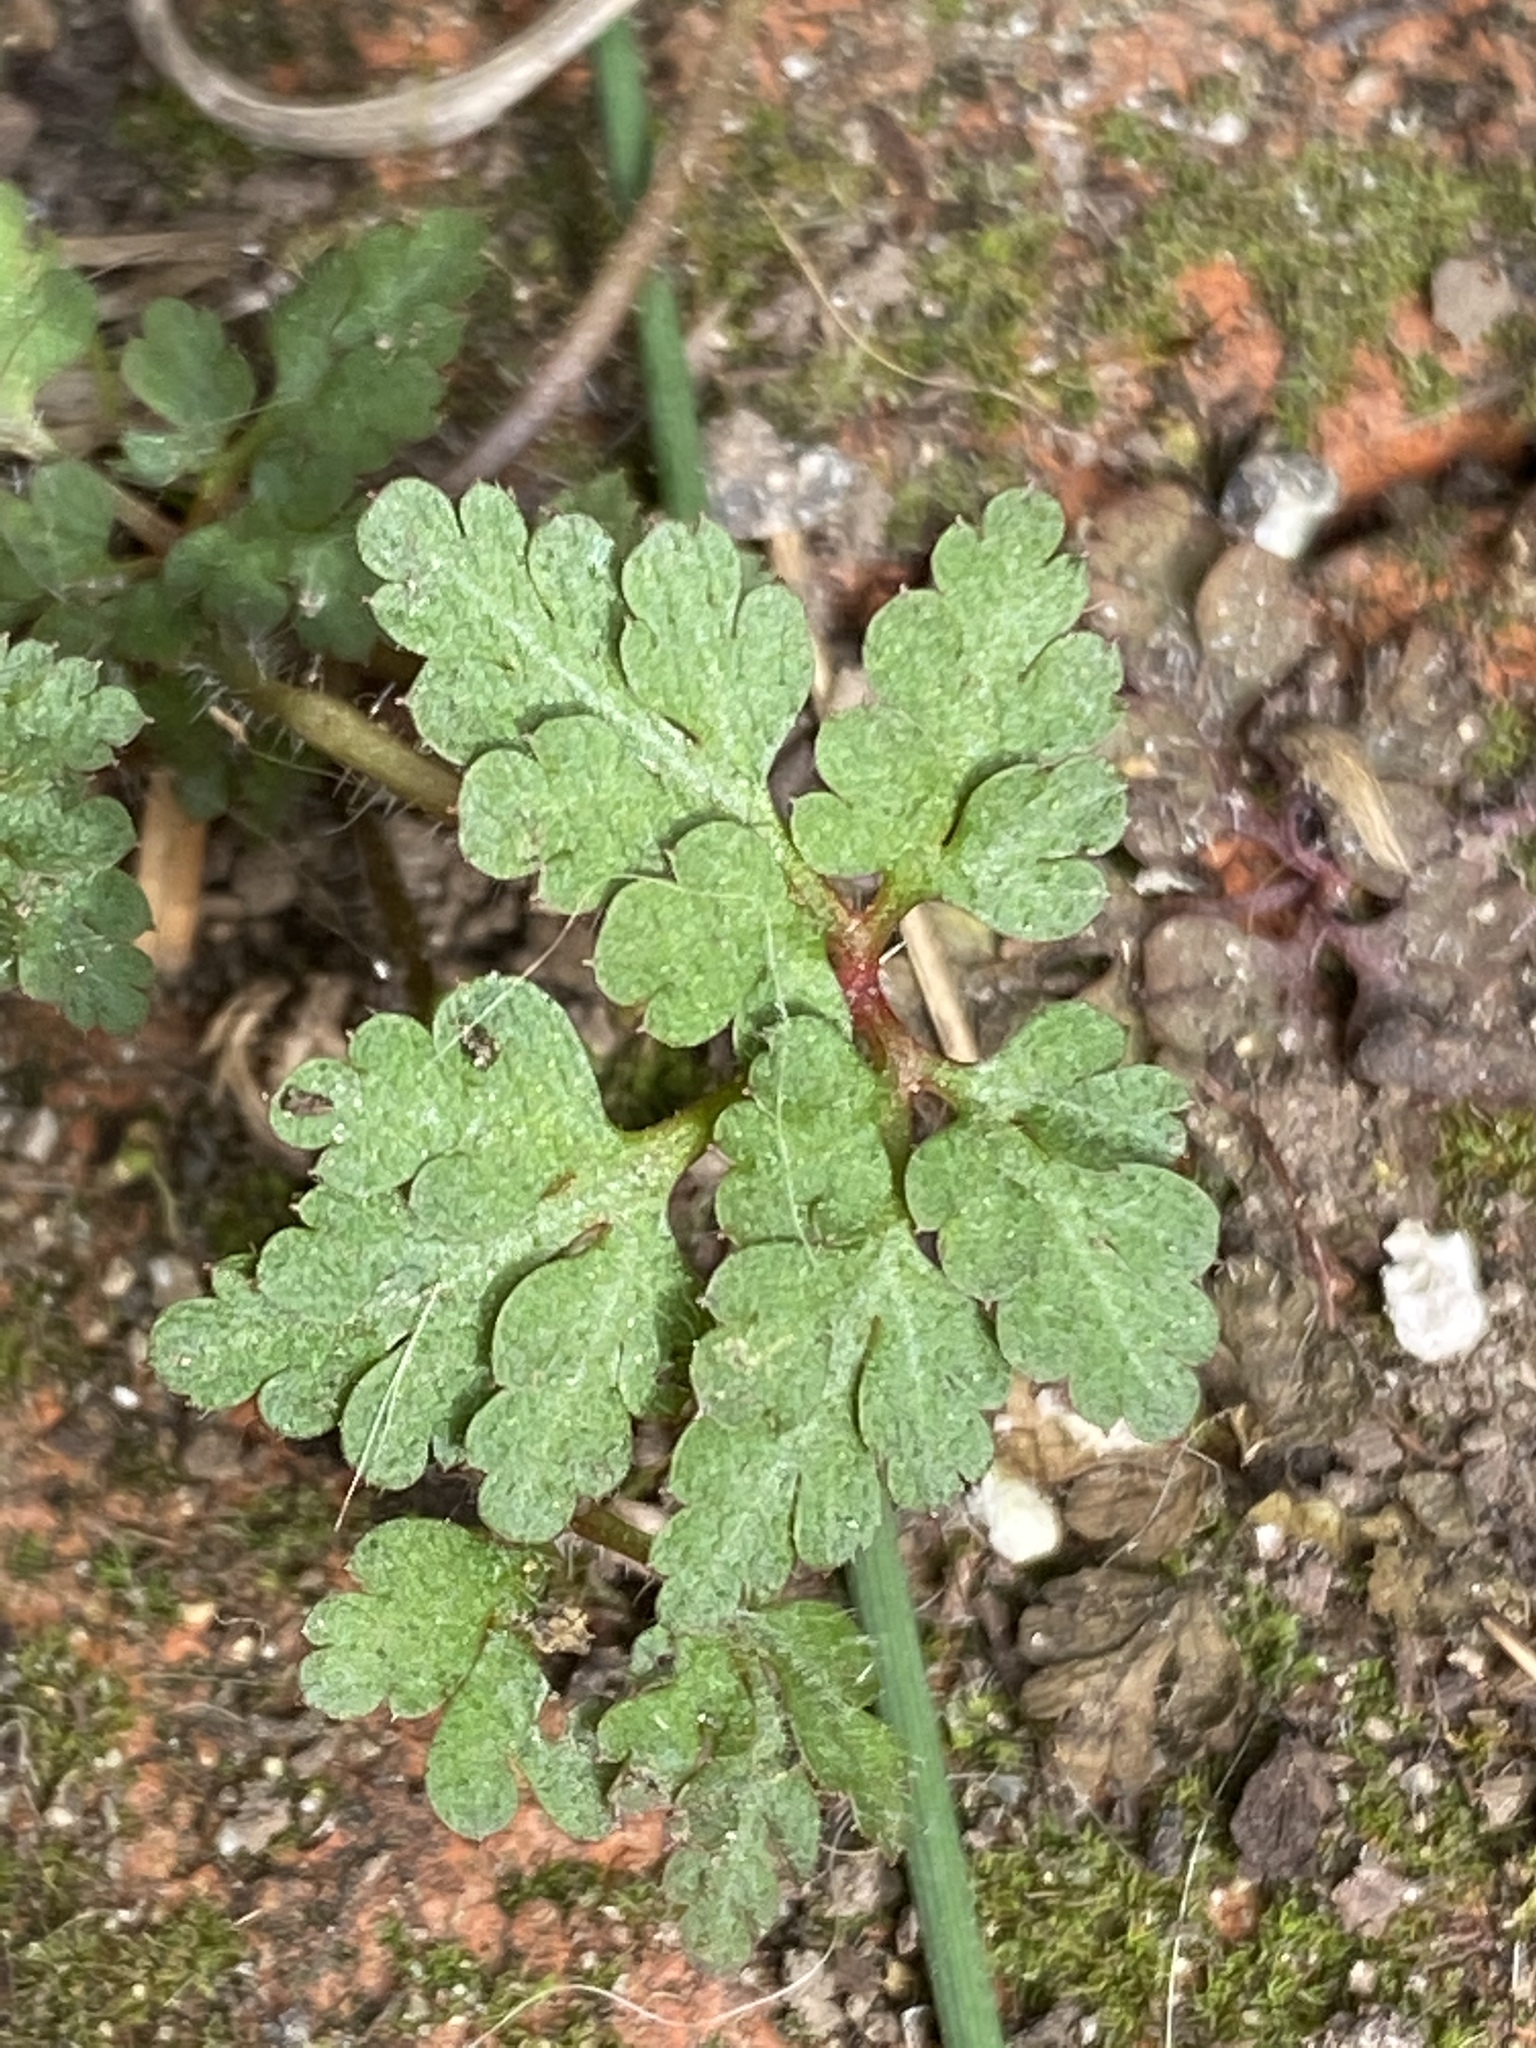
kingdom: Plantae
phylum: Tracheophyta
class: Magnoliopsida
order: Geraniales
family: Geraniaceae
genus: Geranium
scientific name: Geranium
